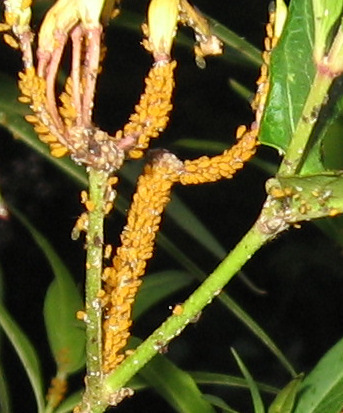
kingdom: Animalia
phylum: Arthropoda
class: Insecta
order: Hemiptera
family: Aphididae
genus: Aphis
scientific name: Aphis nerii
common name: Oleander aphid
